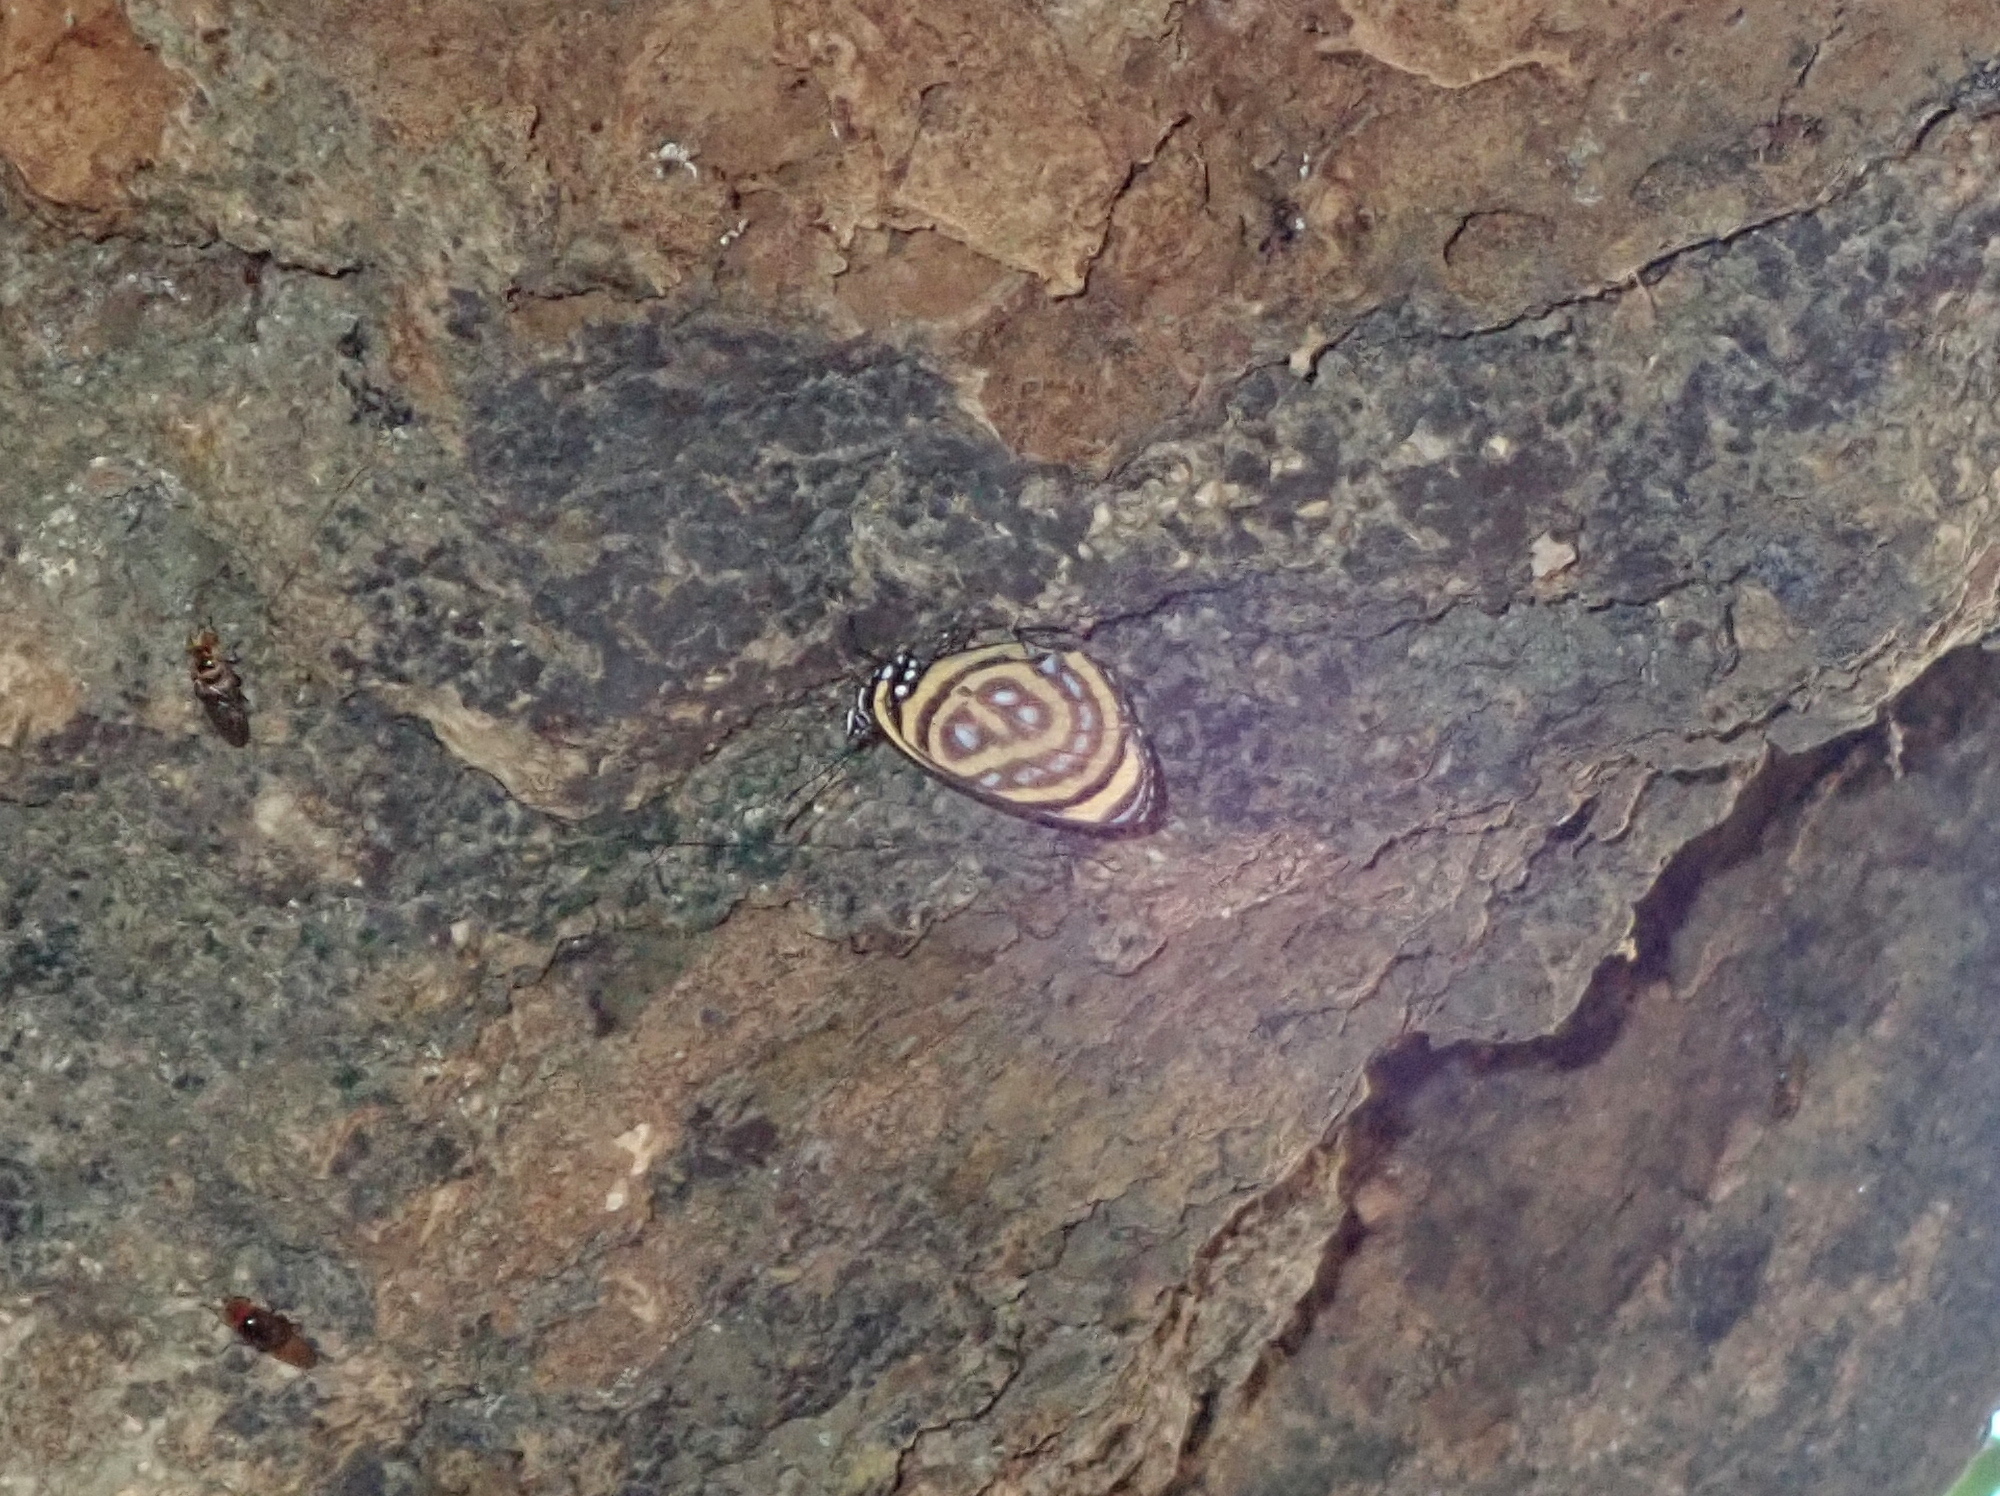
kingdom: Animalia
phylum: Arthropoda
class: Insecta
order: Lepidoptera
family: Nymphalidae
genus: Catagramma
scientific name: Catagramma astarte
